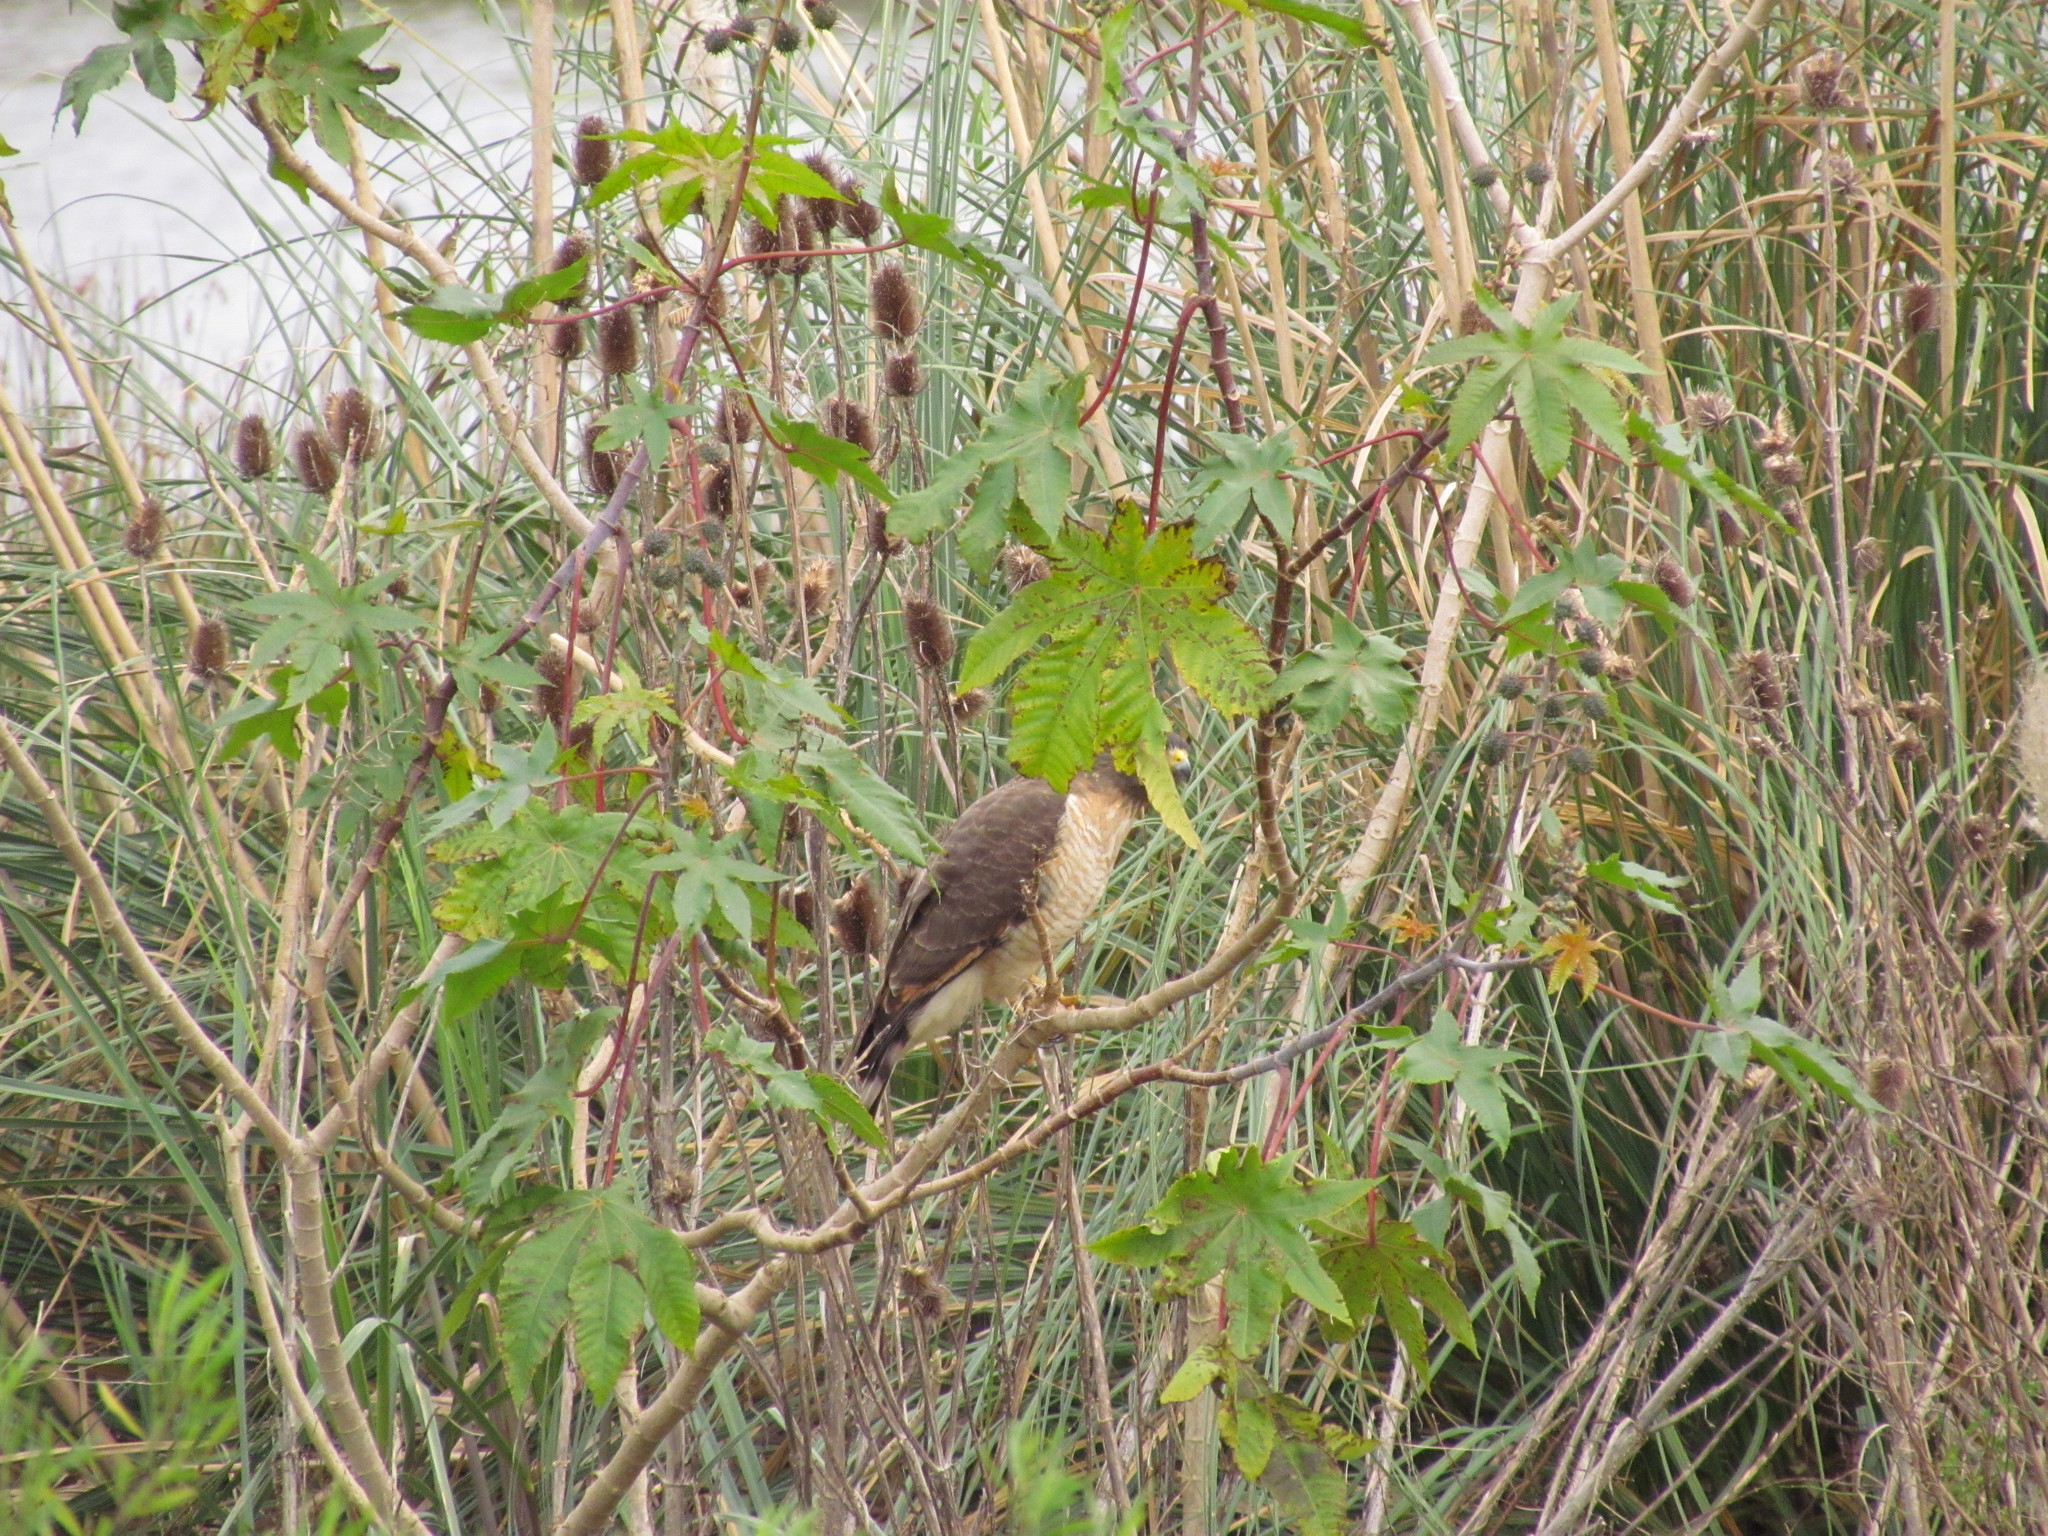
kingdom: Animalia
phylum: Chordata
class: Aves
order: Accipitriformes
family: Accipitridae
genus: Rupornis
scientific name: Rupornis magnirostris
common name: Roadside hawk
